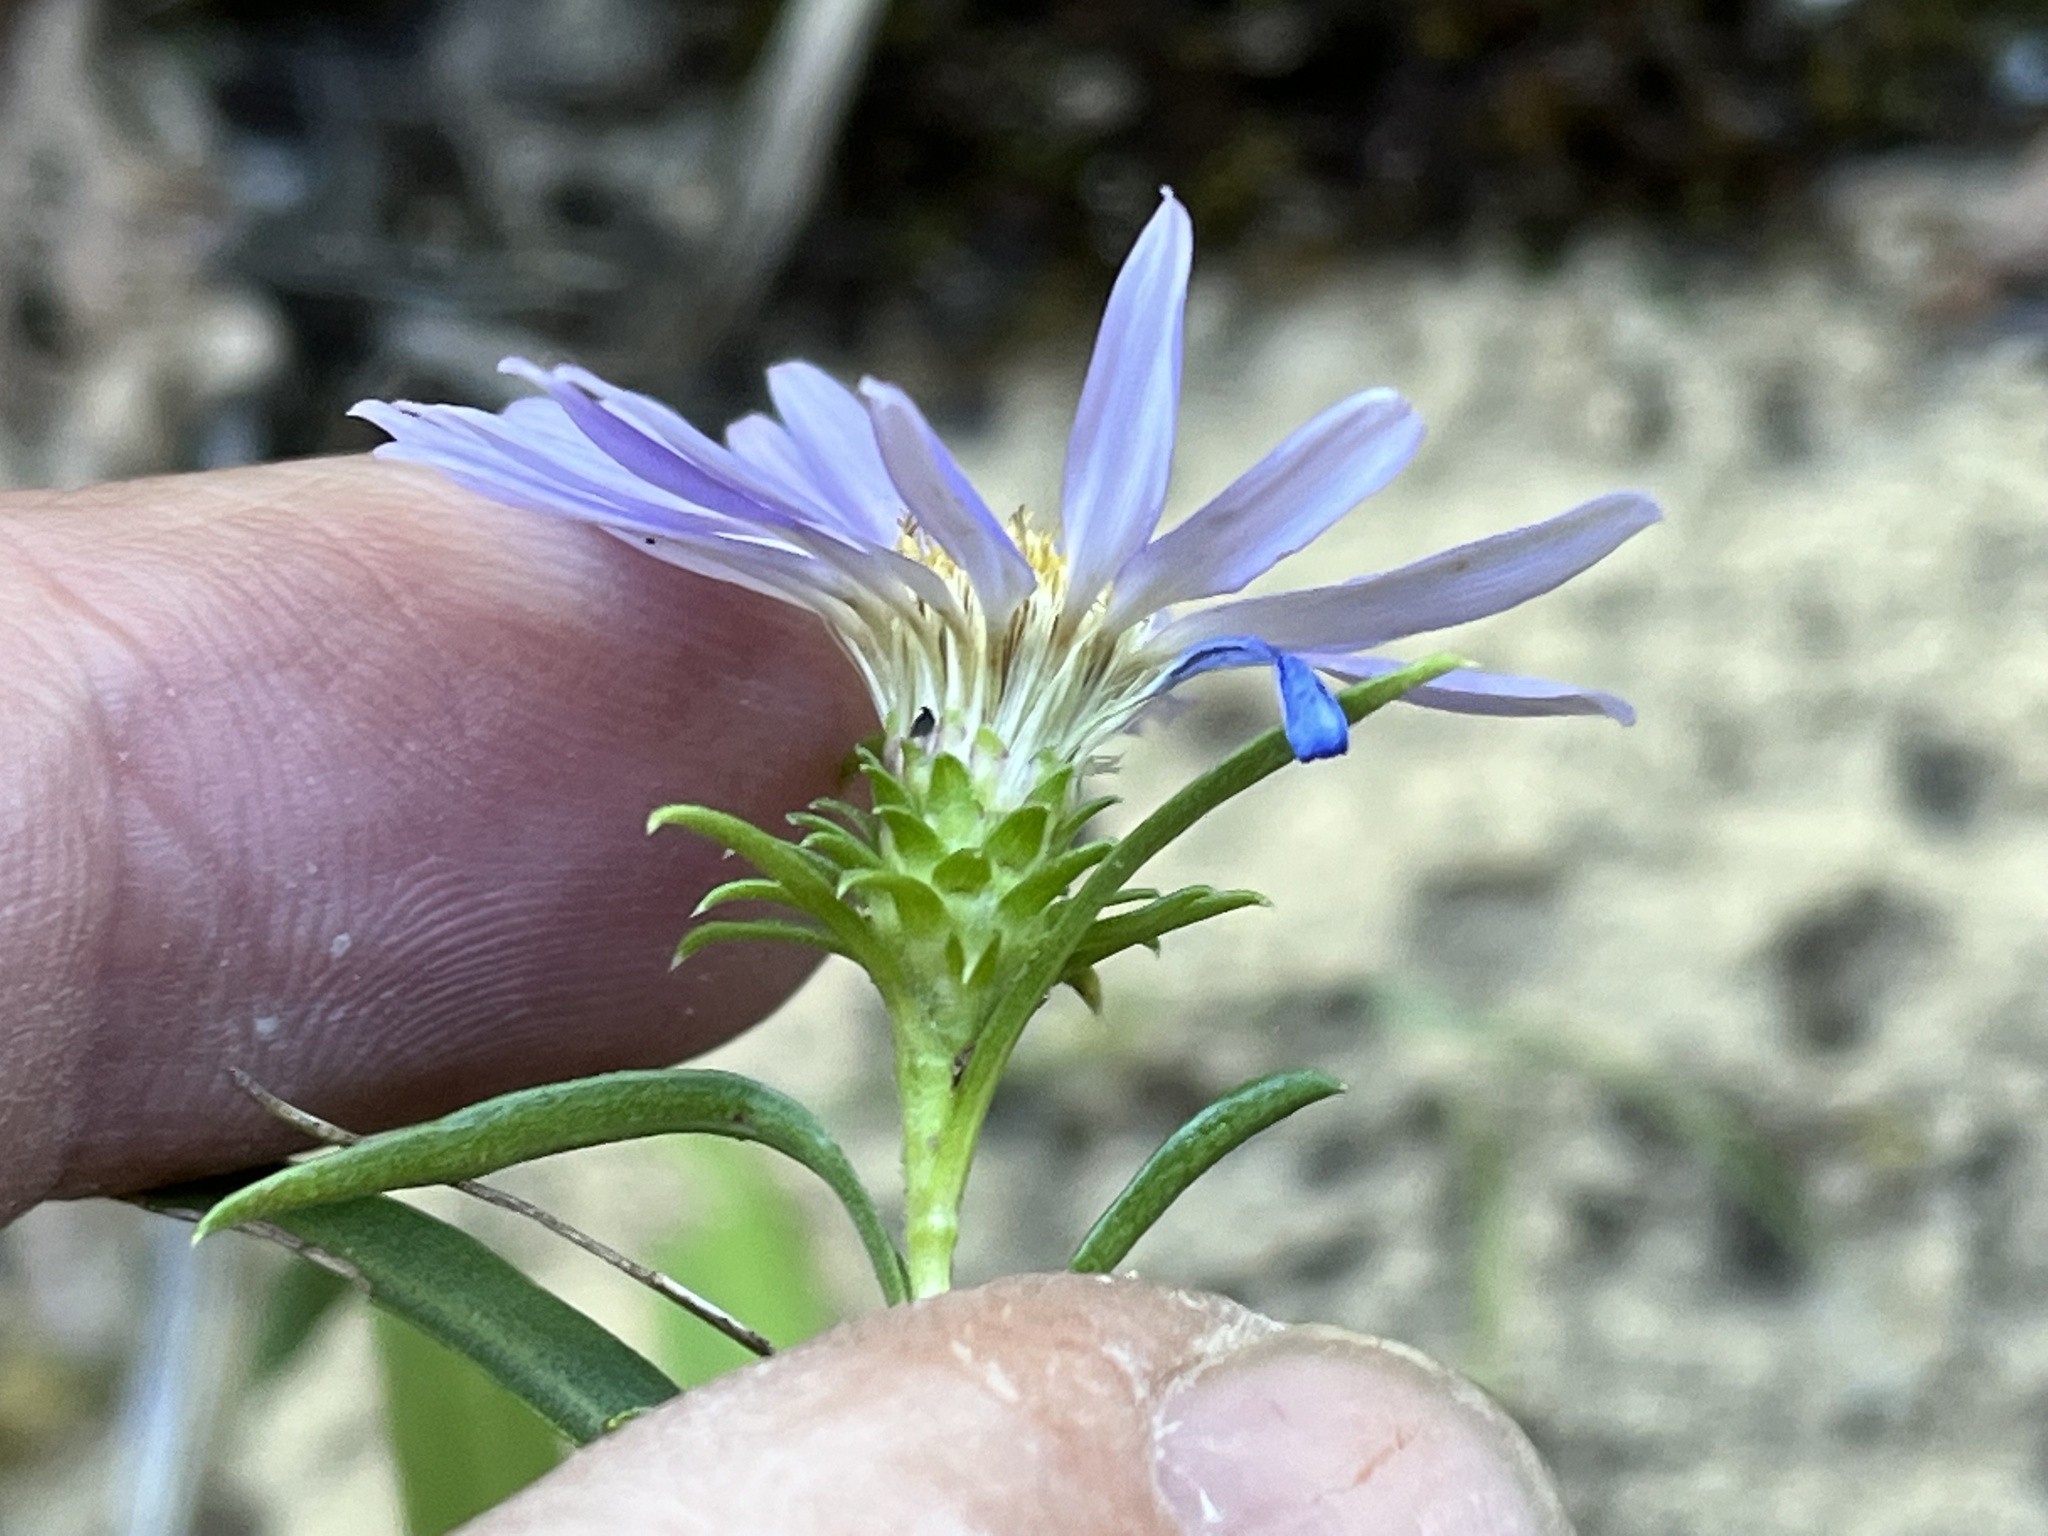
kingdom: Plantae
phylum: Tracheophyta
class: Magnoliopsida
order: Asterales
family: Asteraceae
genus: Eurybia
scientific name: Eurybia hemispherica
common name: Showy aster
